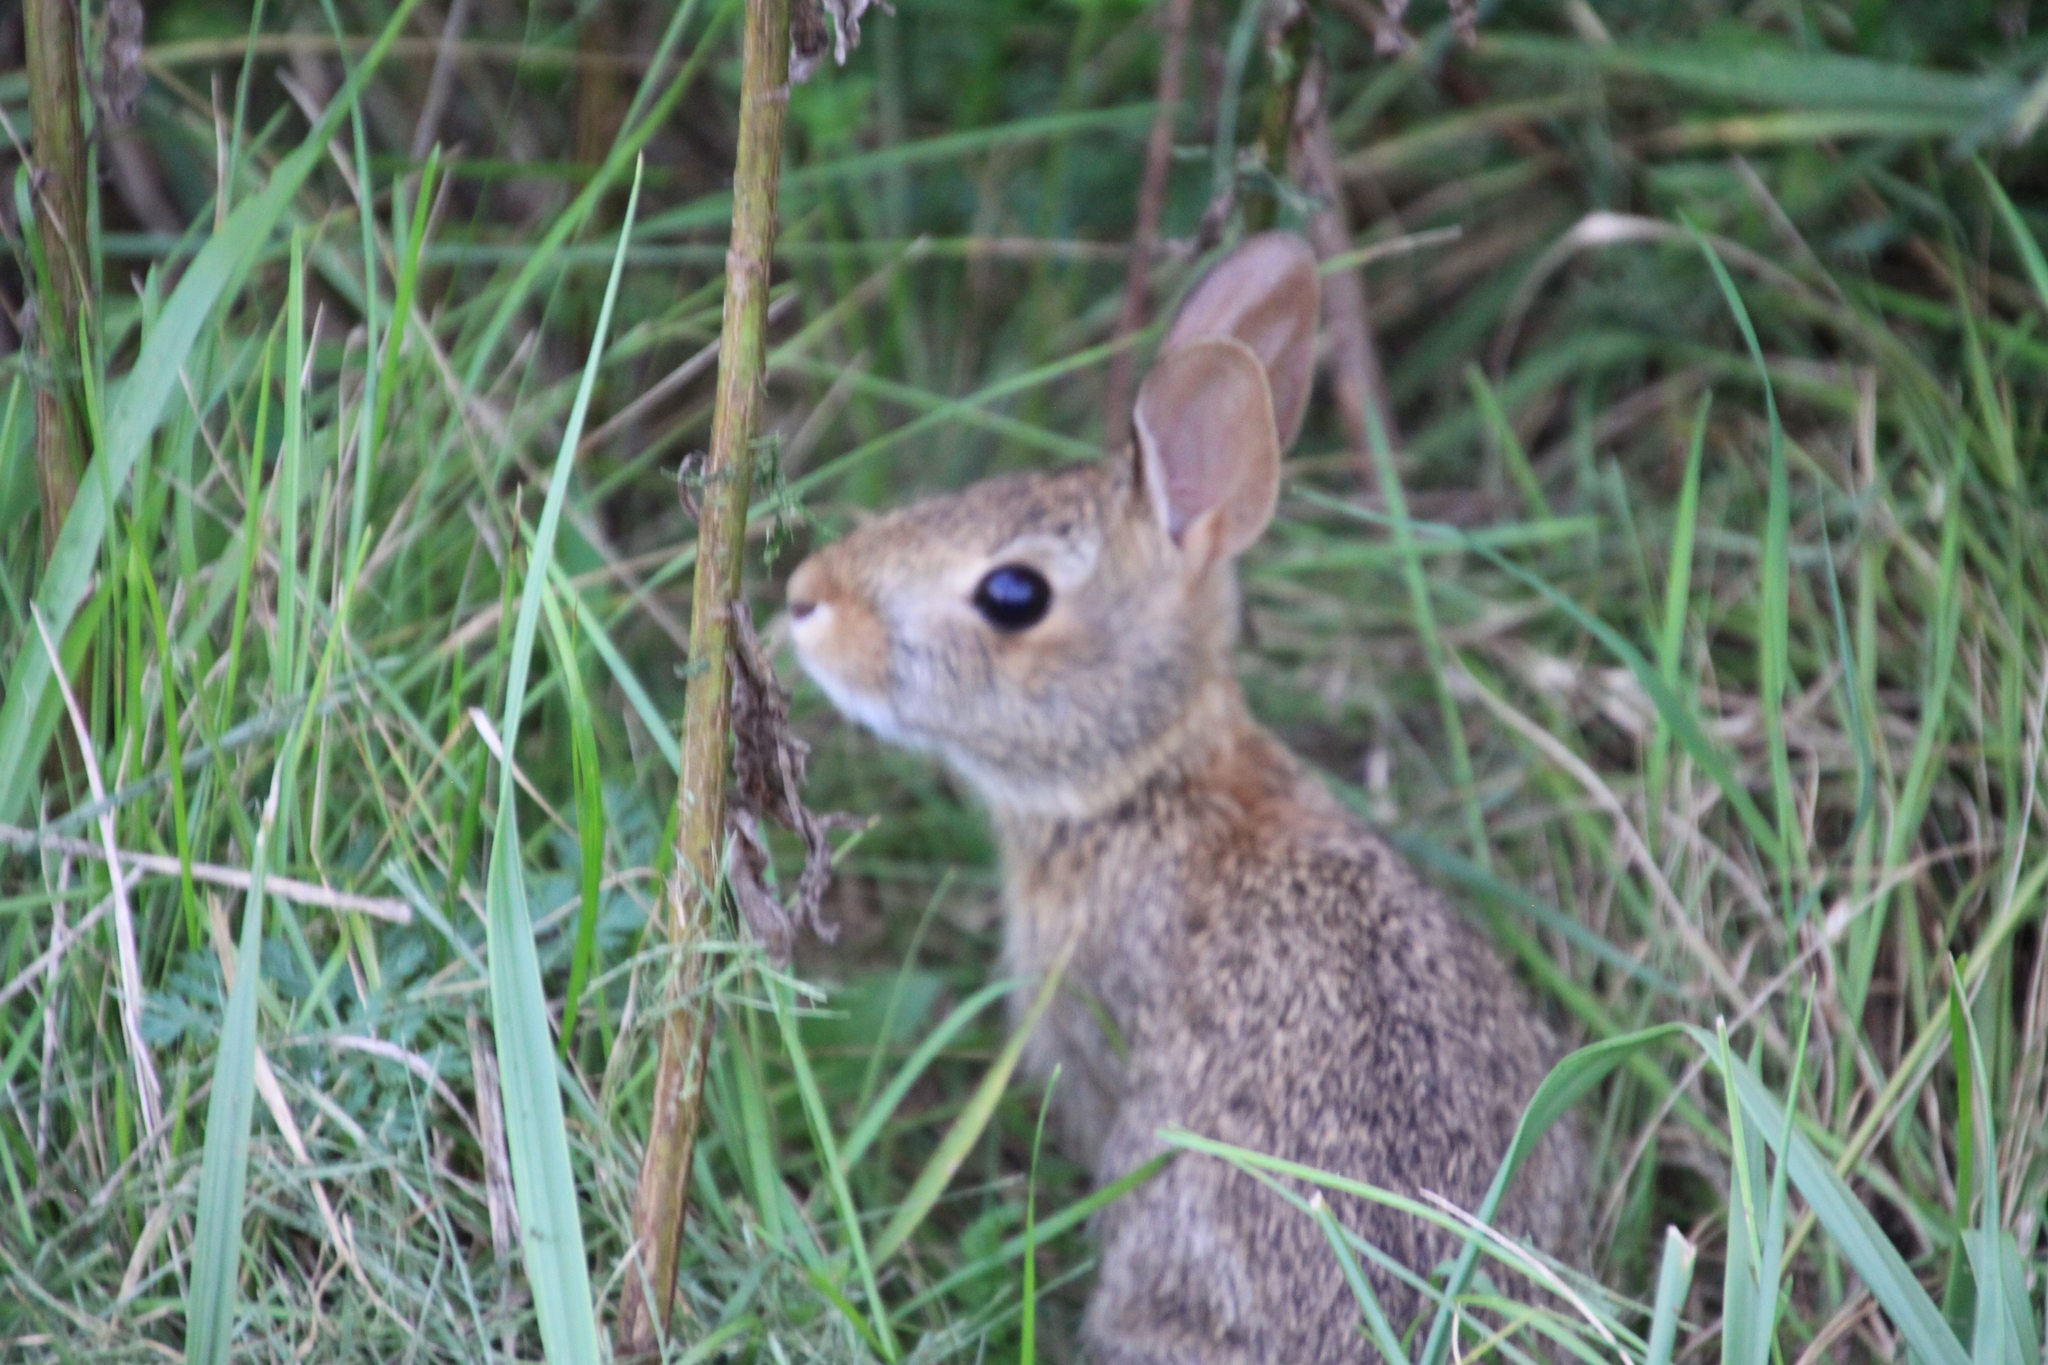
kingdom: Animalia
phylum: Chordata
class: Mammalia
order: Lagomorpha
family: Leporidae
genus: Sylvilagus
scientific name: Sylvilagus floridanus
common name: Eastern cottontail
